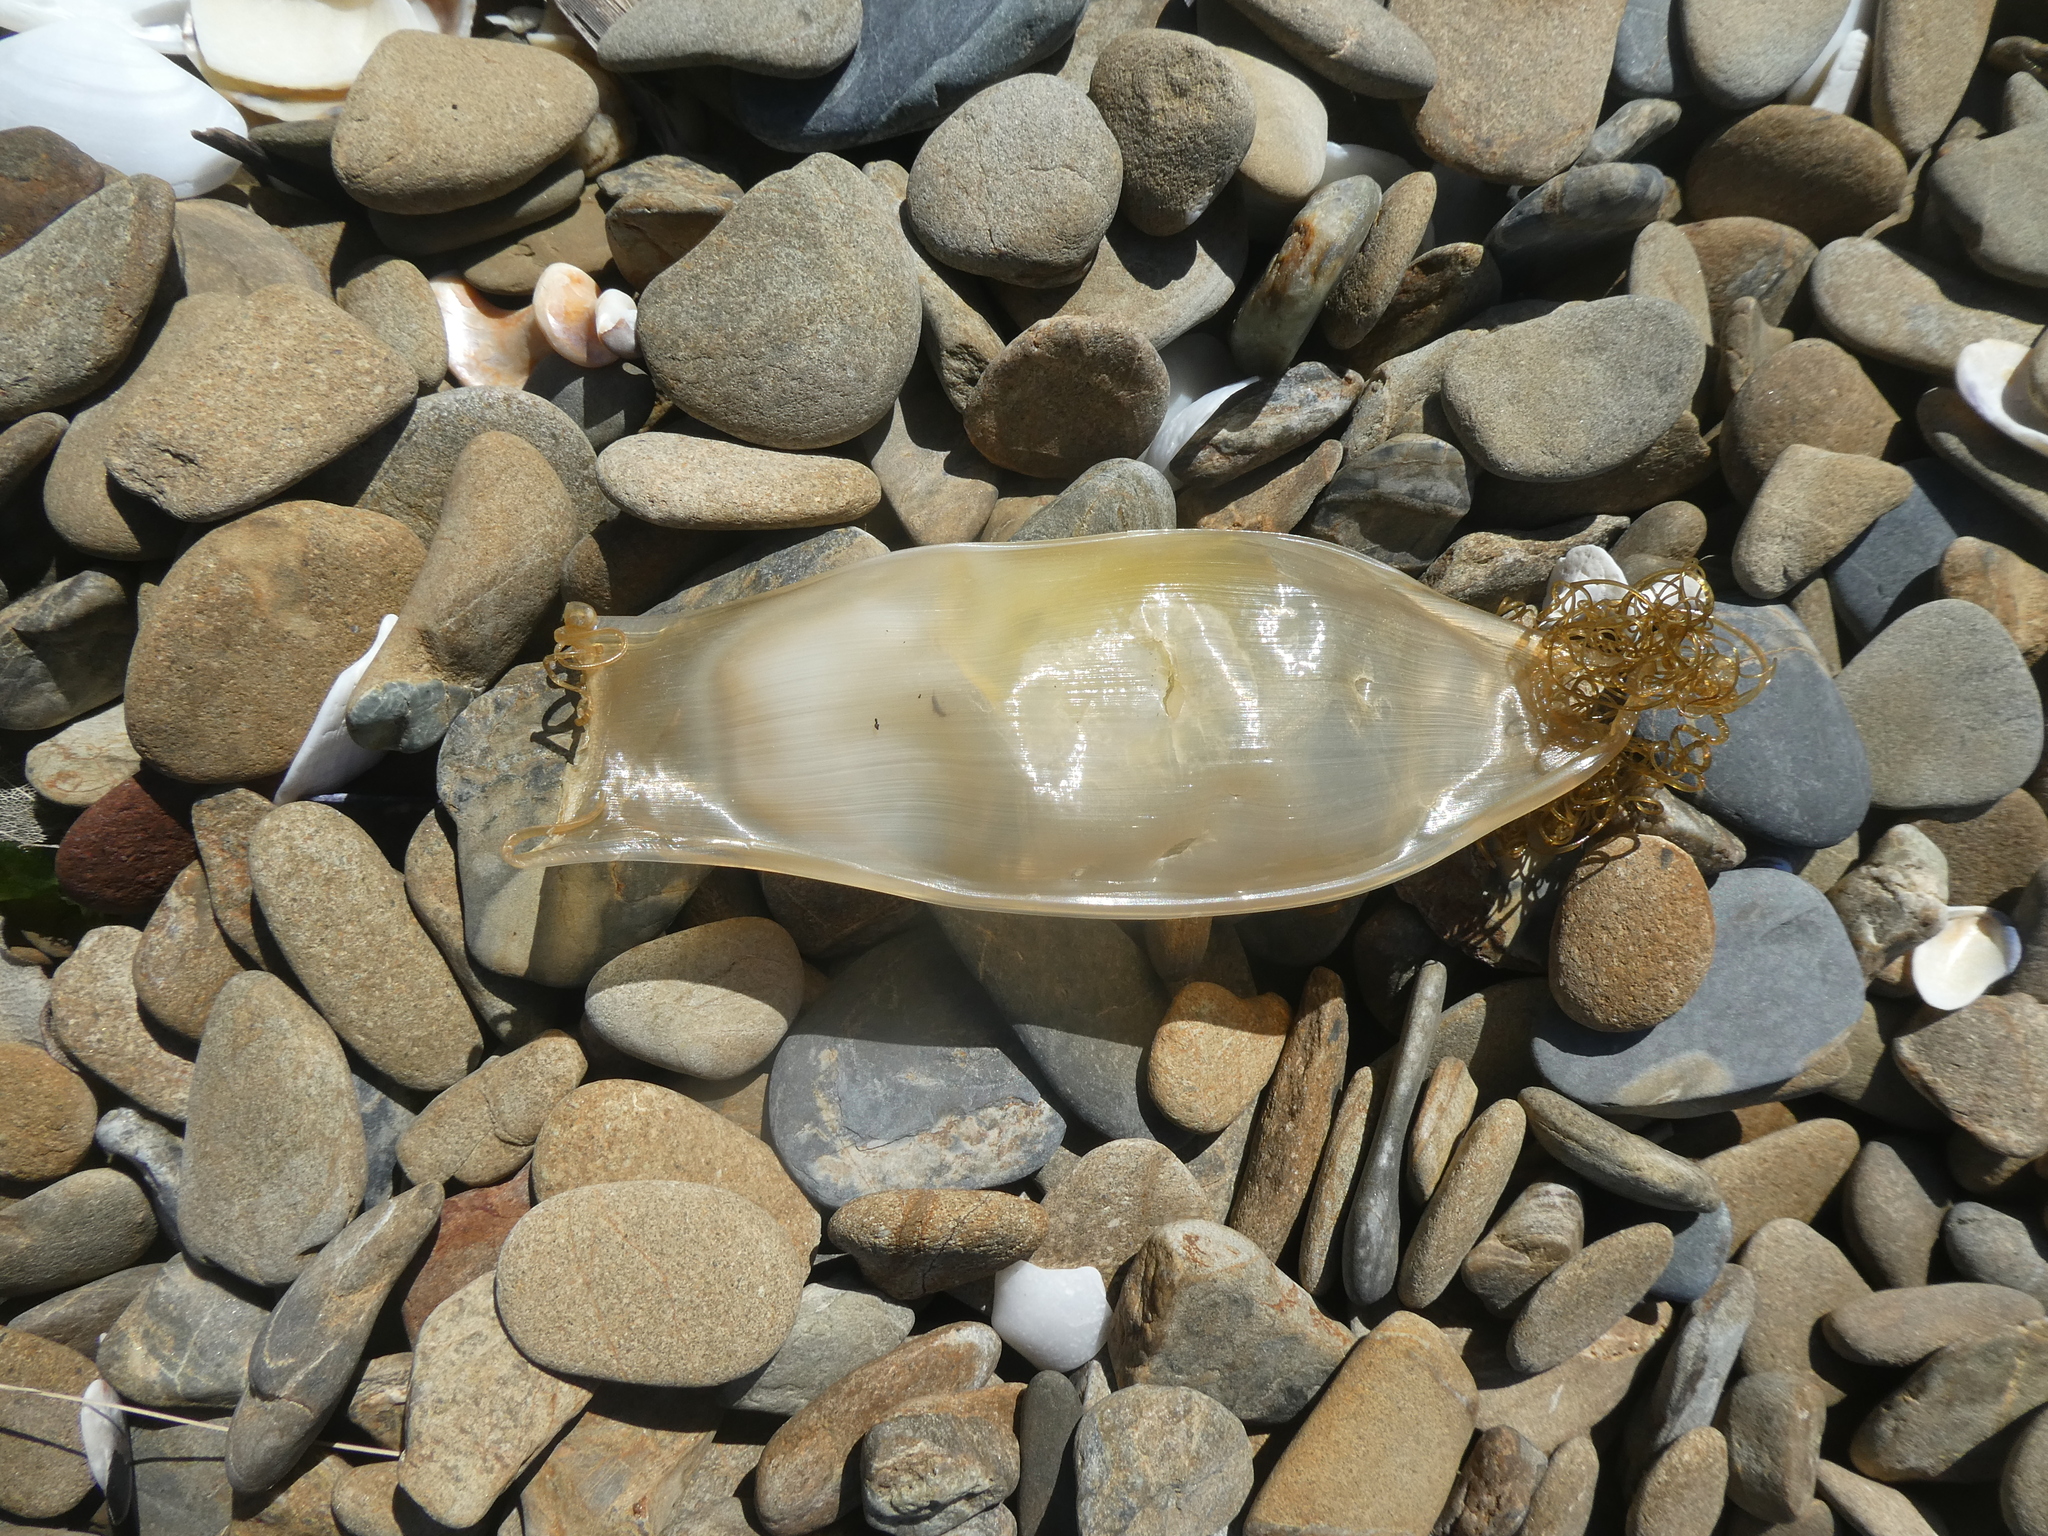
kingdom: Animalia
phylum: Chordata
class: Elasmobranchii
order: Carcharhiniformes
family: Scyliorhinidae
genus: Cephaloscyllium
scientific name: Cephaloscyllium isabellum
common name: Carpet shark
